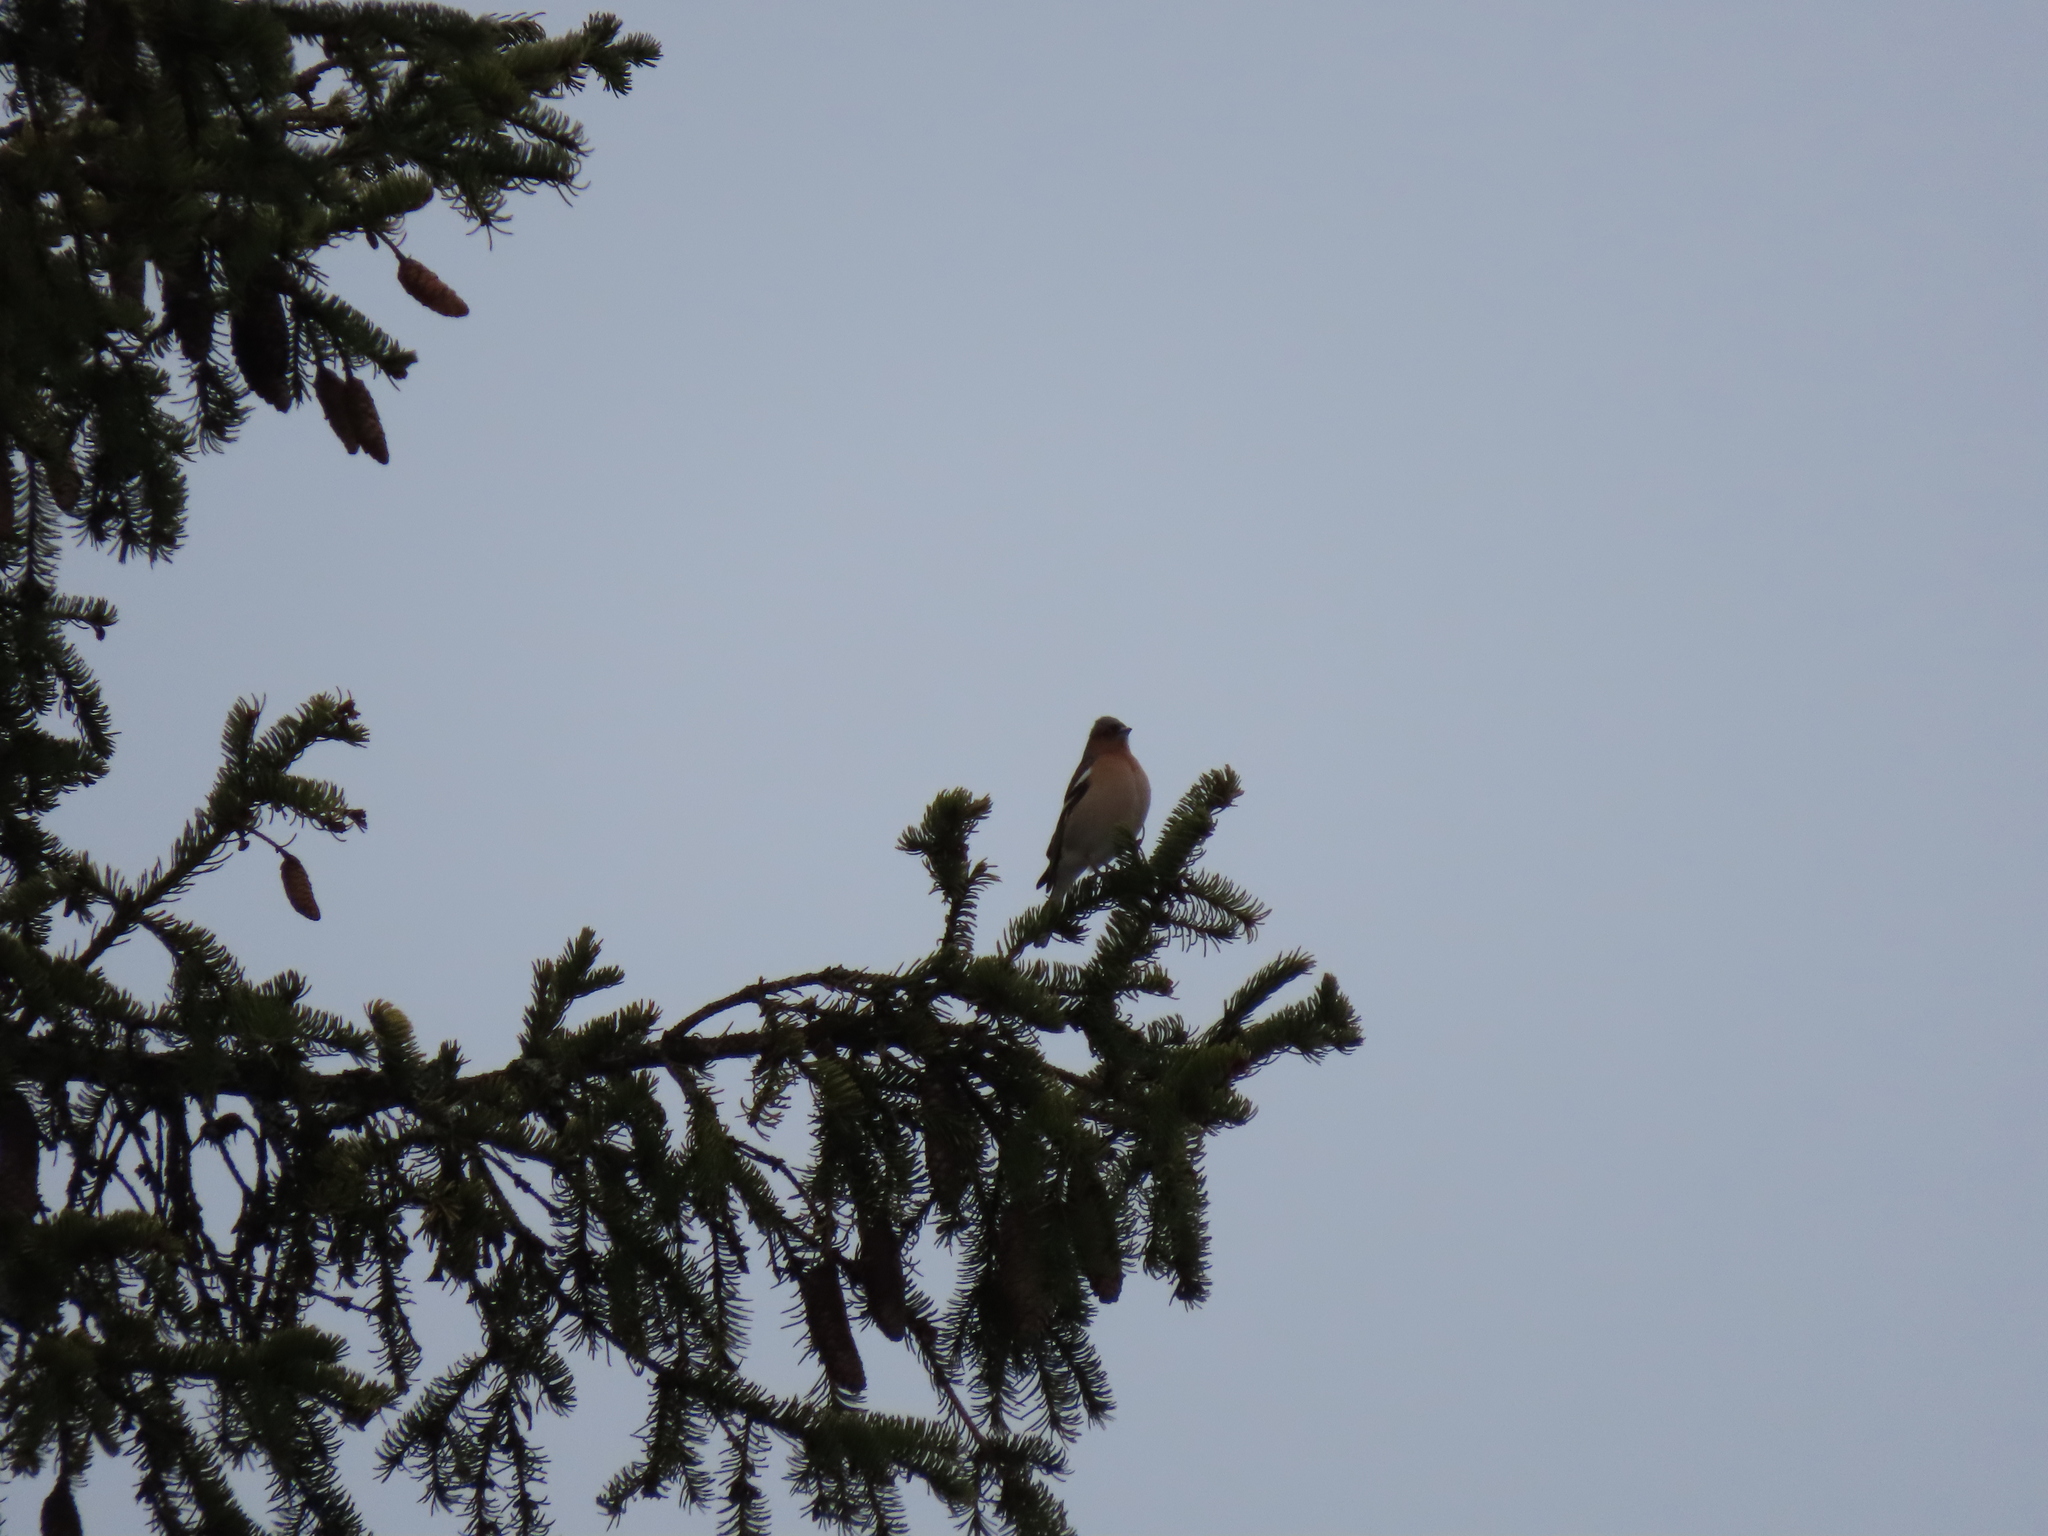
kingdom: Animalia
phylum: Chordata
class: Aves
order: Passeriformes
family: Fringillidae
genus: Fringilla
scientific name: Fringilla coelebs
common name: Common chaffinch
